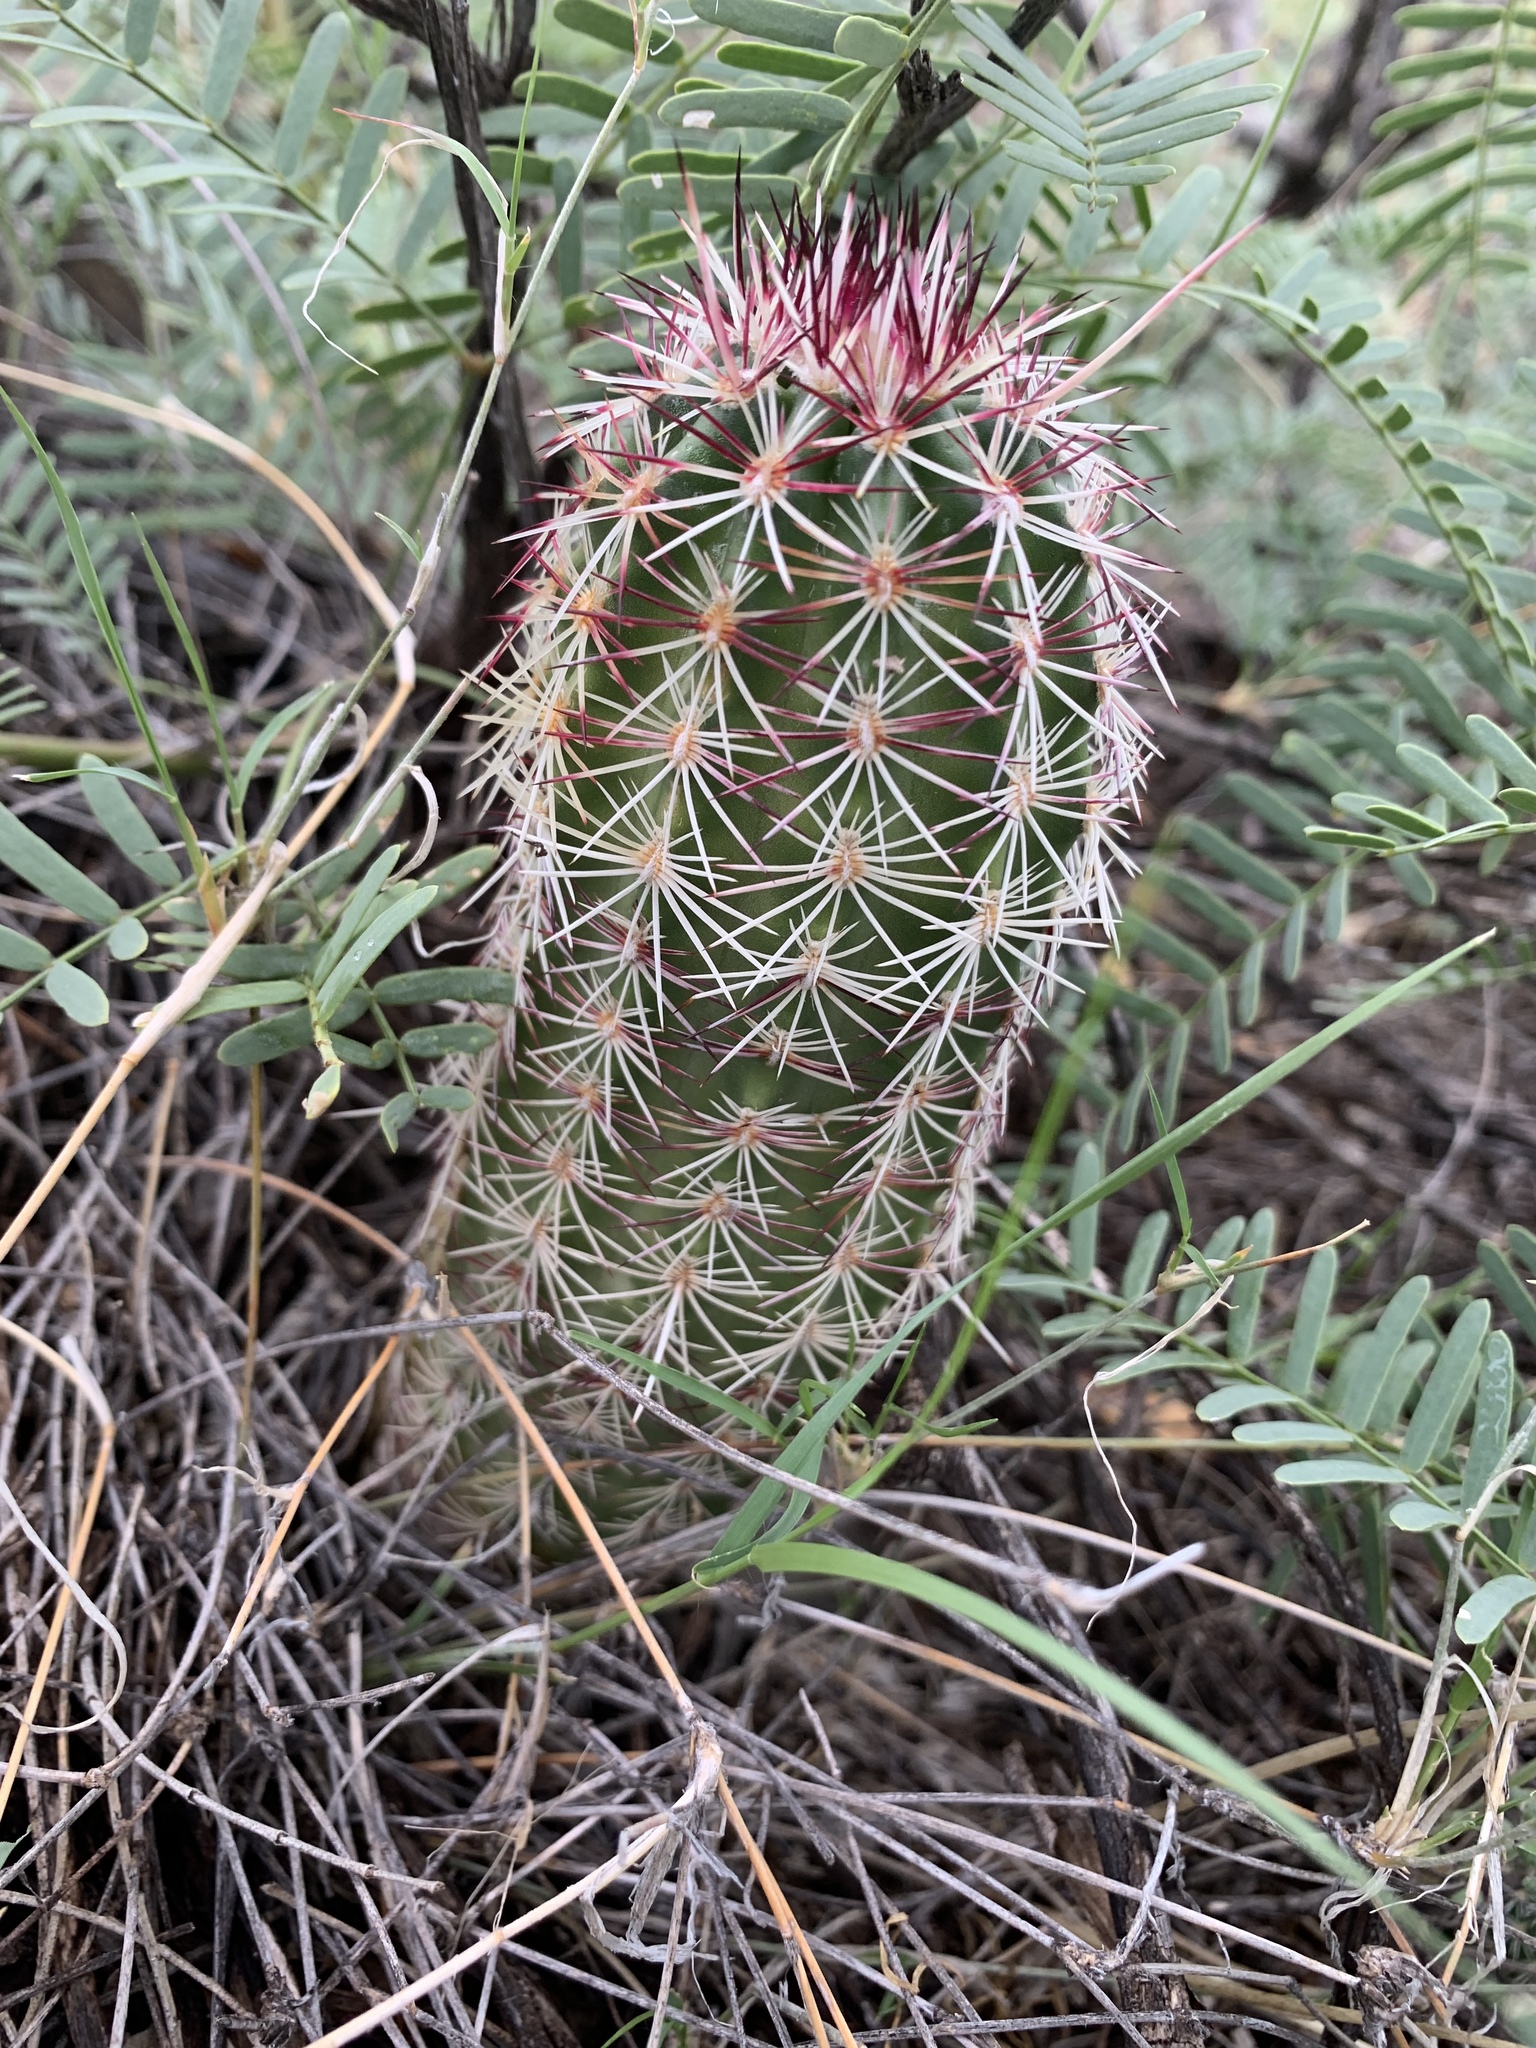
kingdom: Plantae
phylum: Tracheophyta
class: Magnoliopsida
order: Caryophyllales
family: Cactaceae
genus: Echinocereus
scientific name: Echinocereus viridiflorus
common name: Nylon hedgehog cactus
